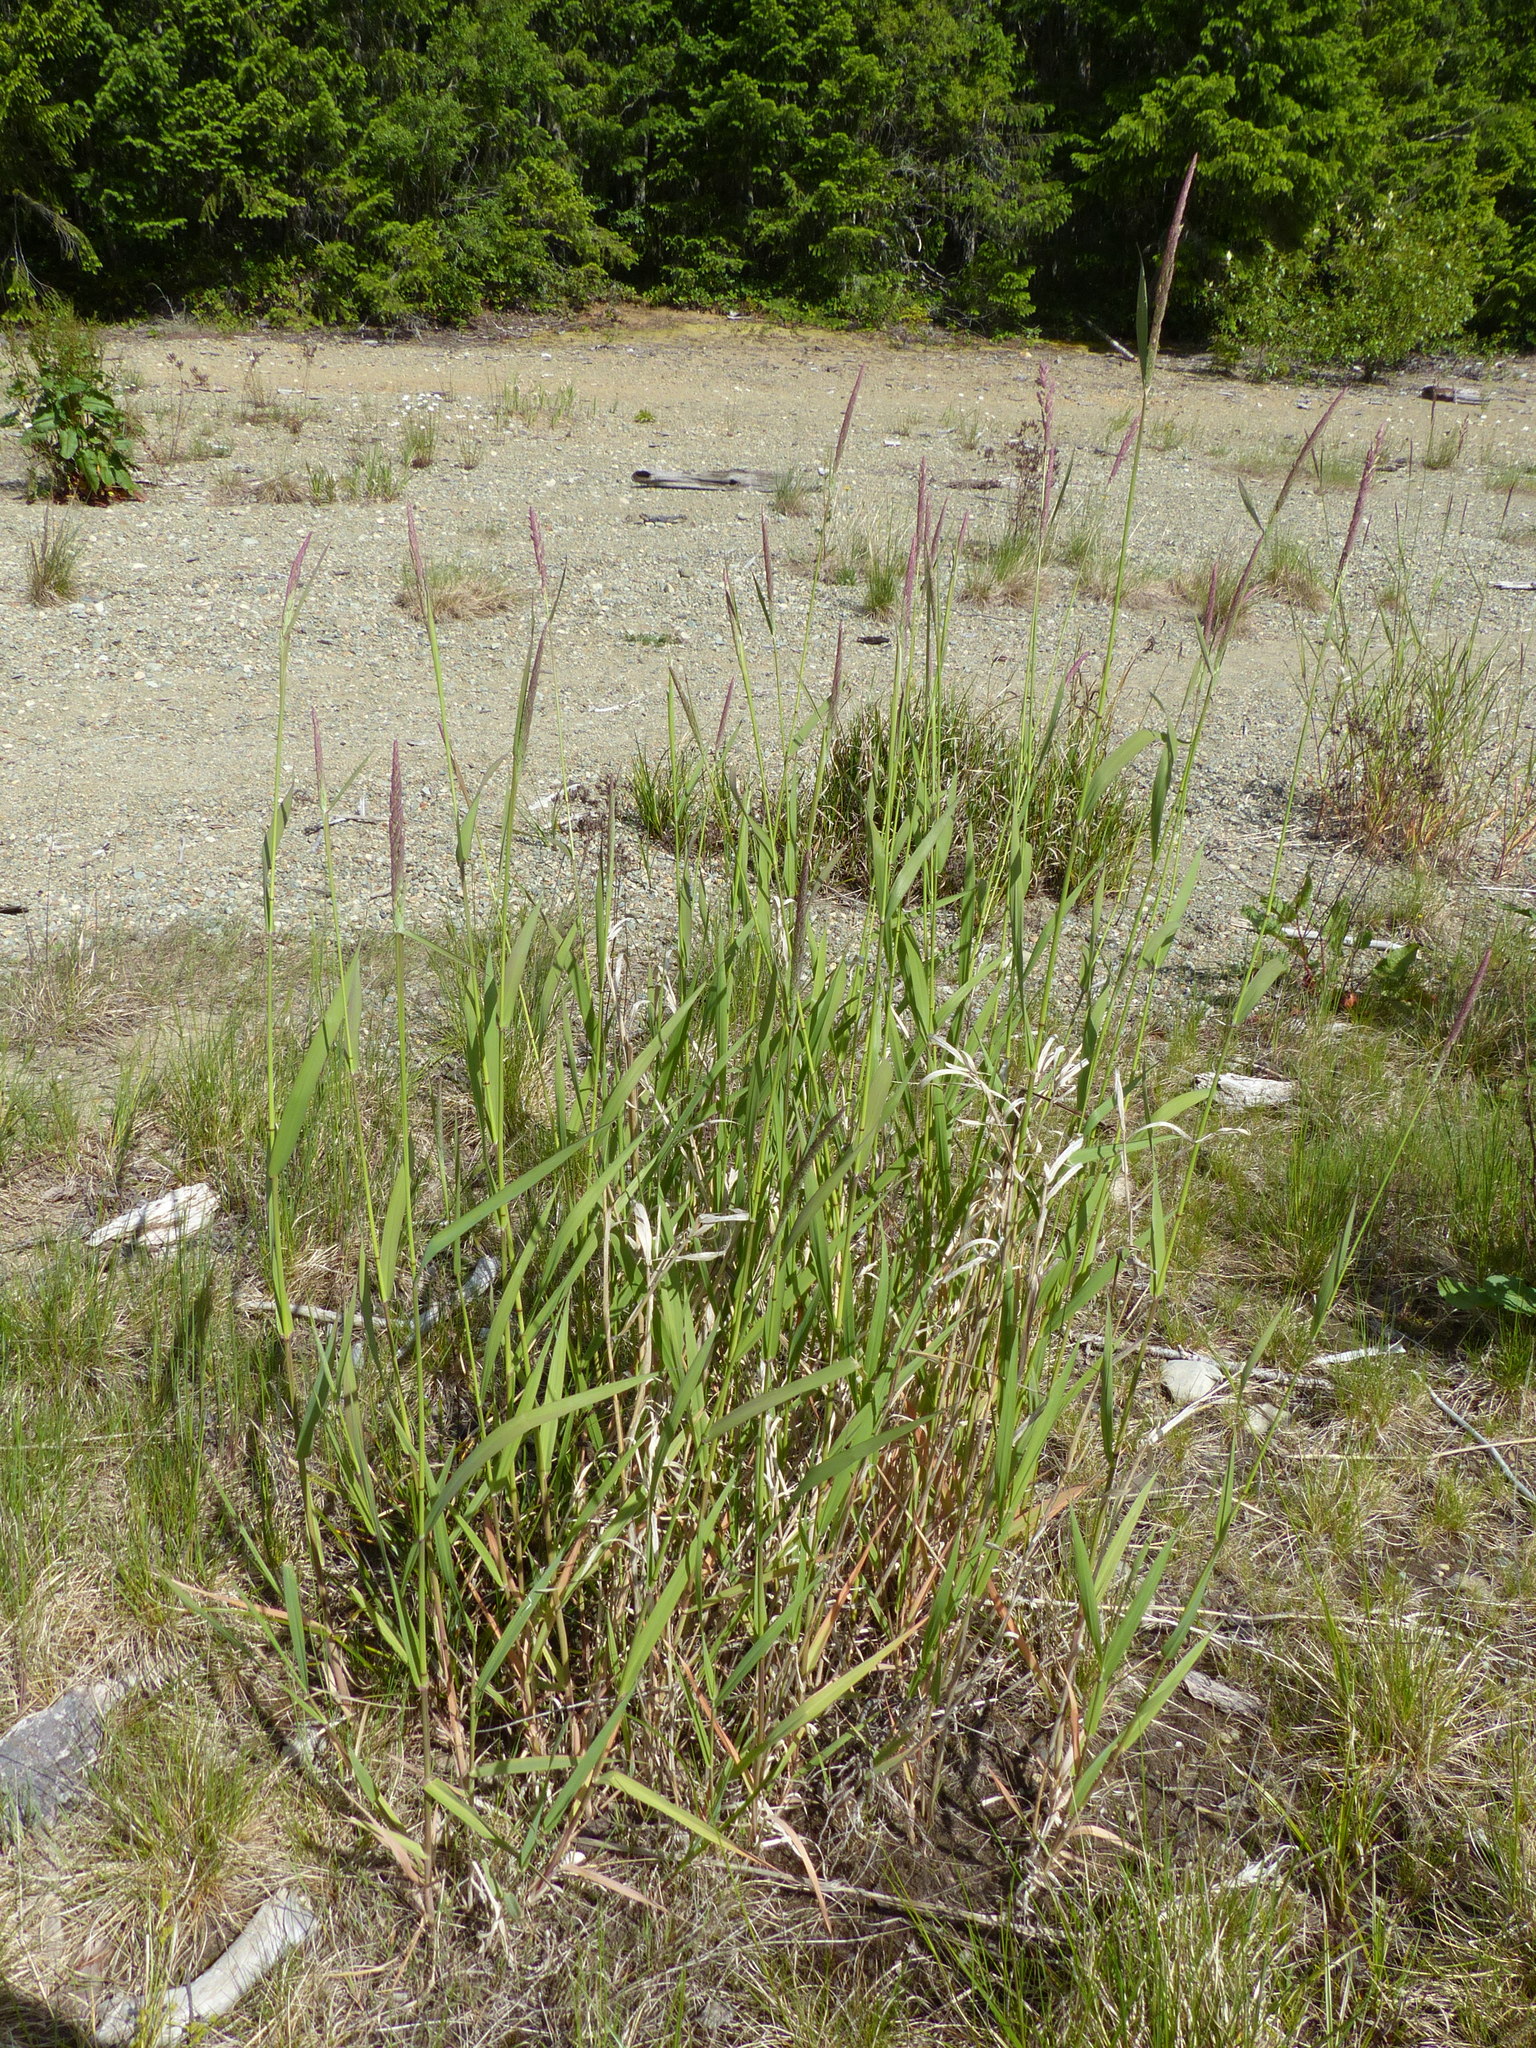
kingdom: Plantae
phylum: Tracheophyta
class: Liliopsida
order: Poales
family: Poaceae
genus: Phalaris
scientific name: Phalaris arundinacea
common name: Reed canary-grass
